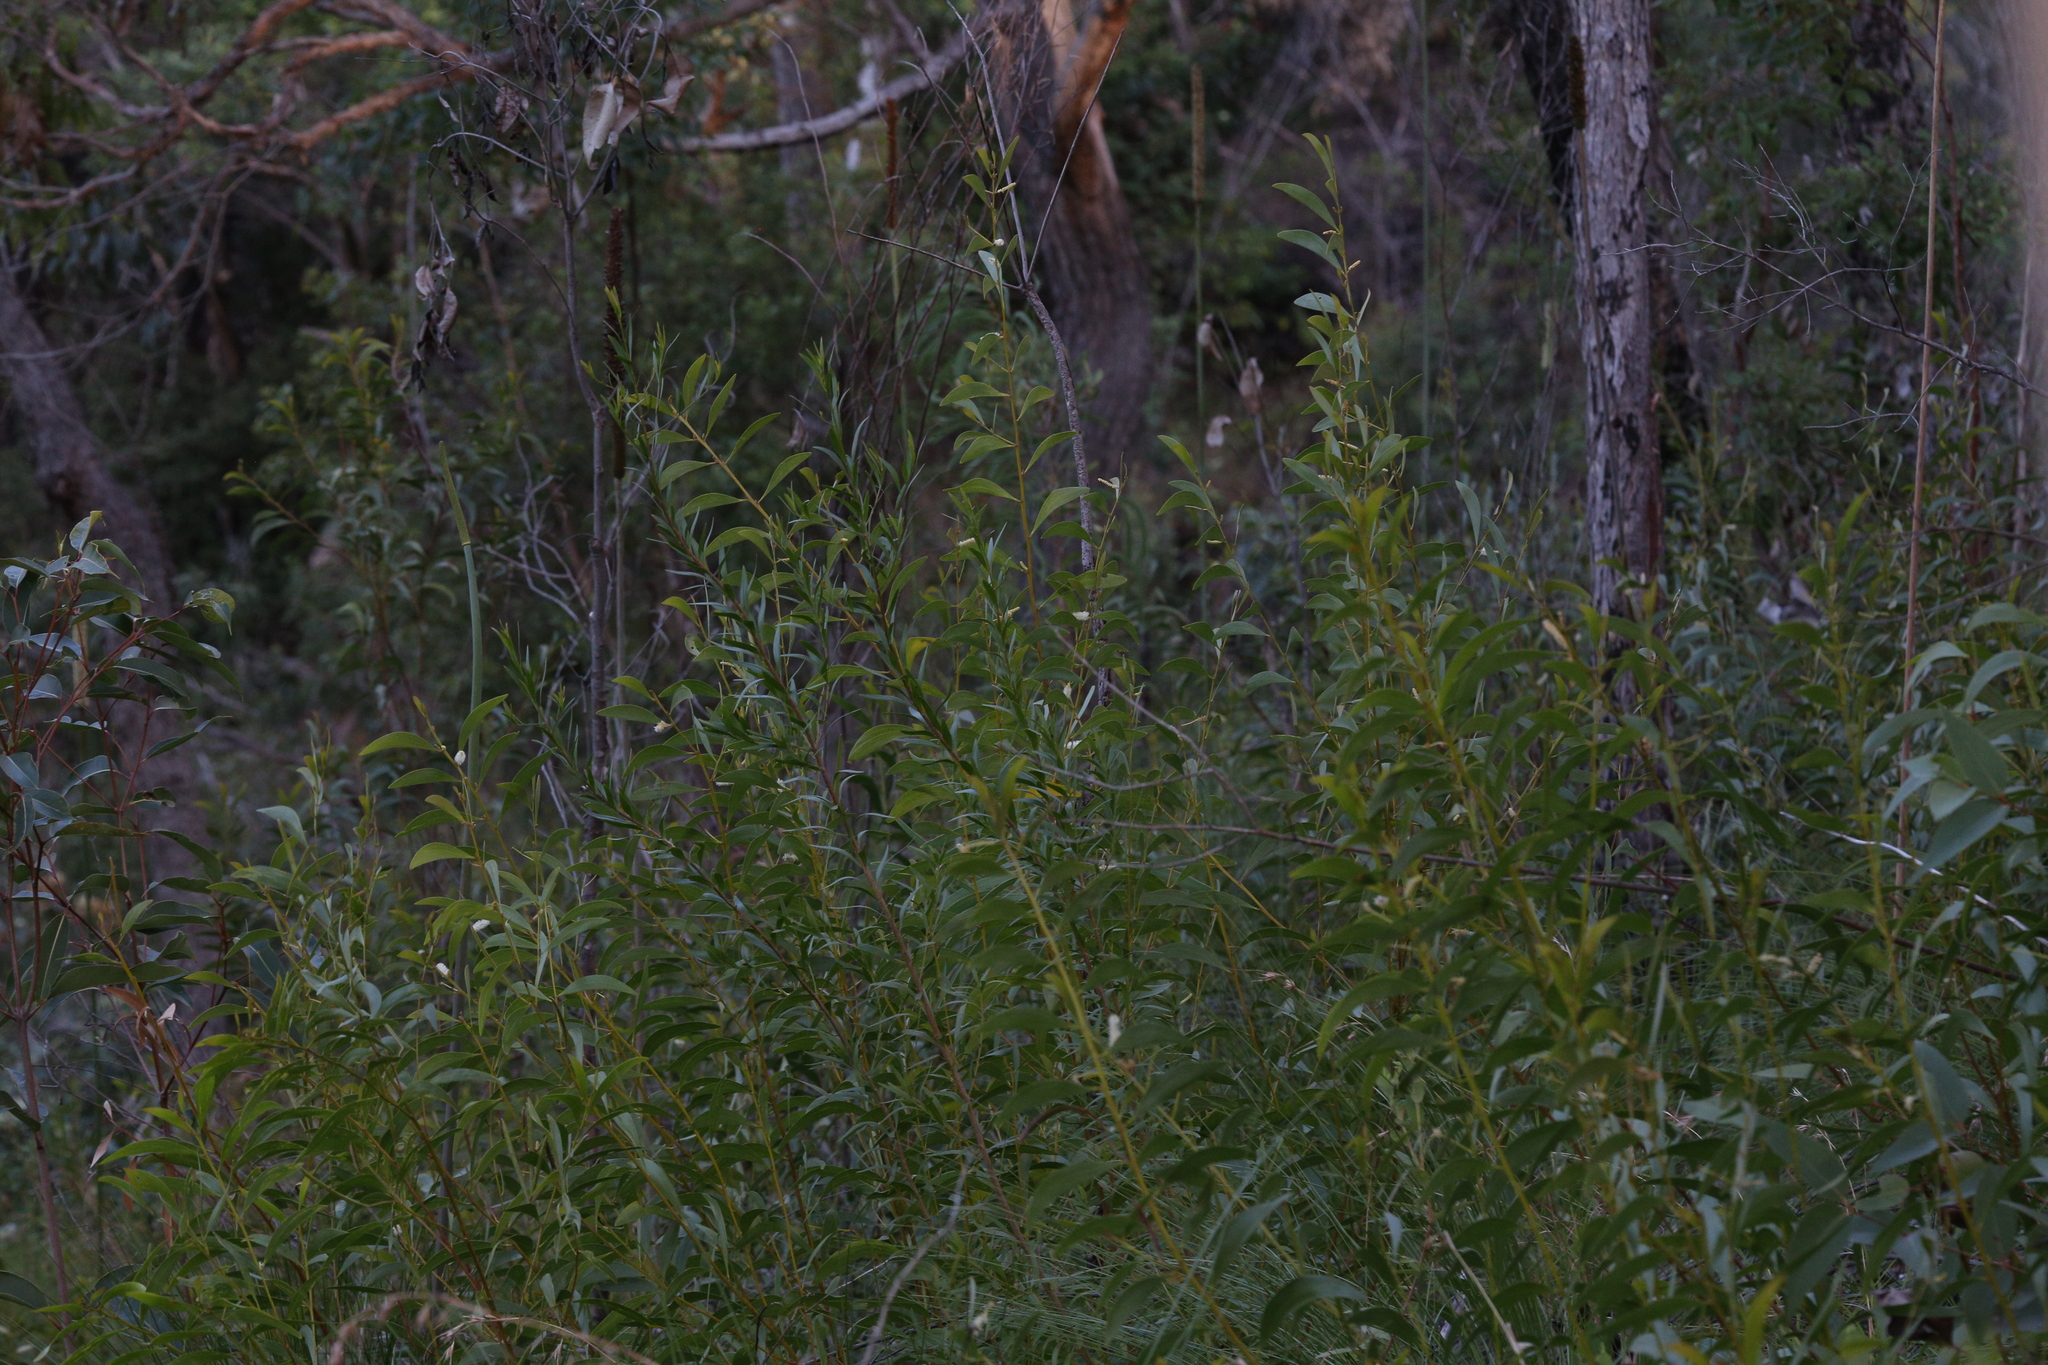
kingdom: Plantae
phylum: Tracheophyta
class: Magnoliopsida
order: Fabales
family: Fabaceae
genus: Acacia
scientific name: Acacia calyculata
